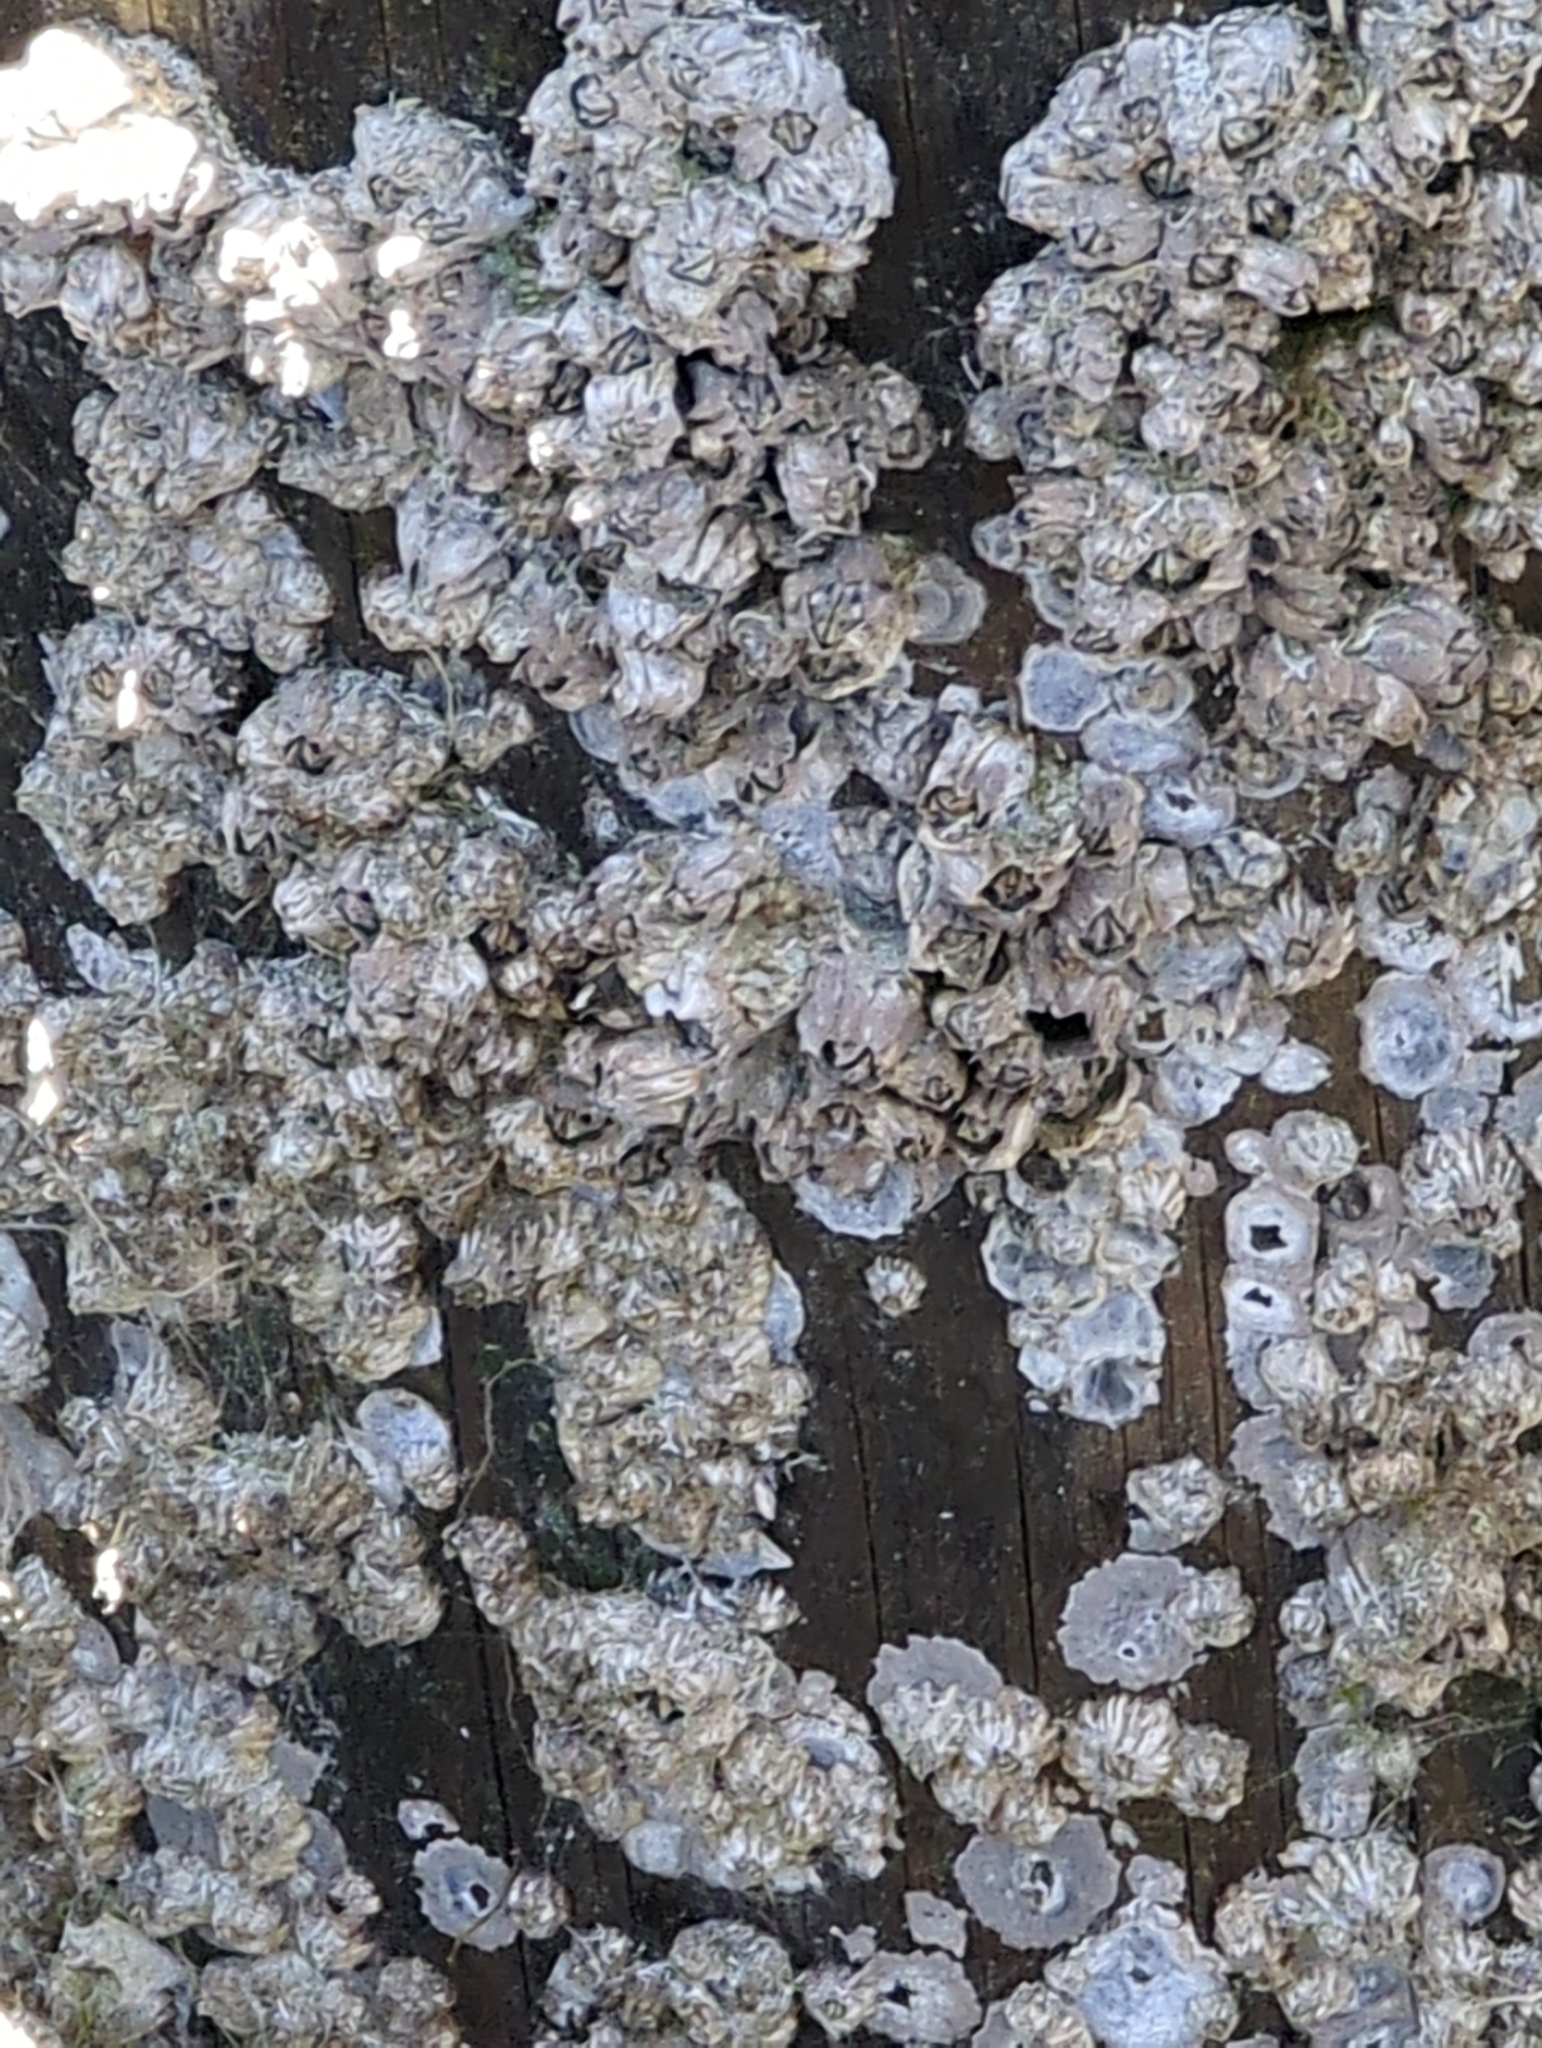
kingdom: Animalia
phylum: Arthropoda
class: Maxillopoda
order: Sessilia
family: Balanidae
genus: Balanus
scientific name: Balanus glandula
